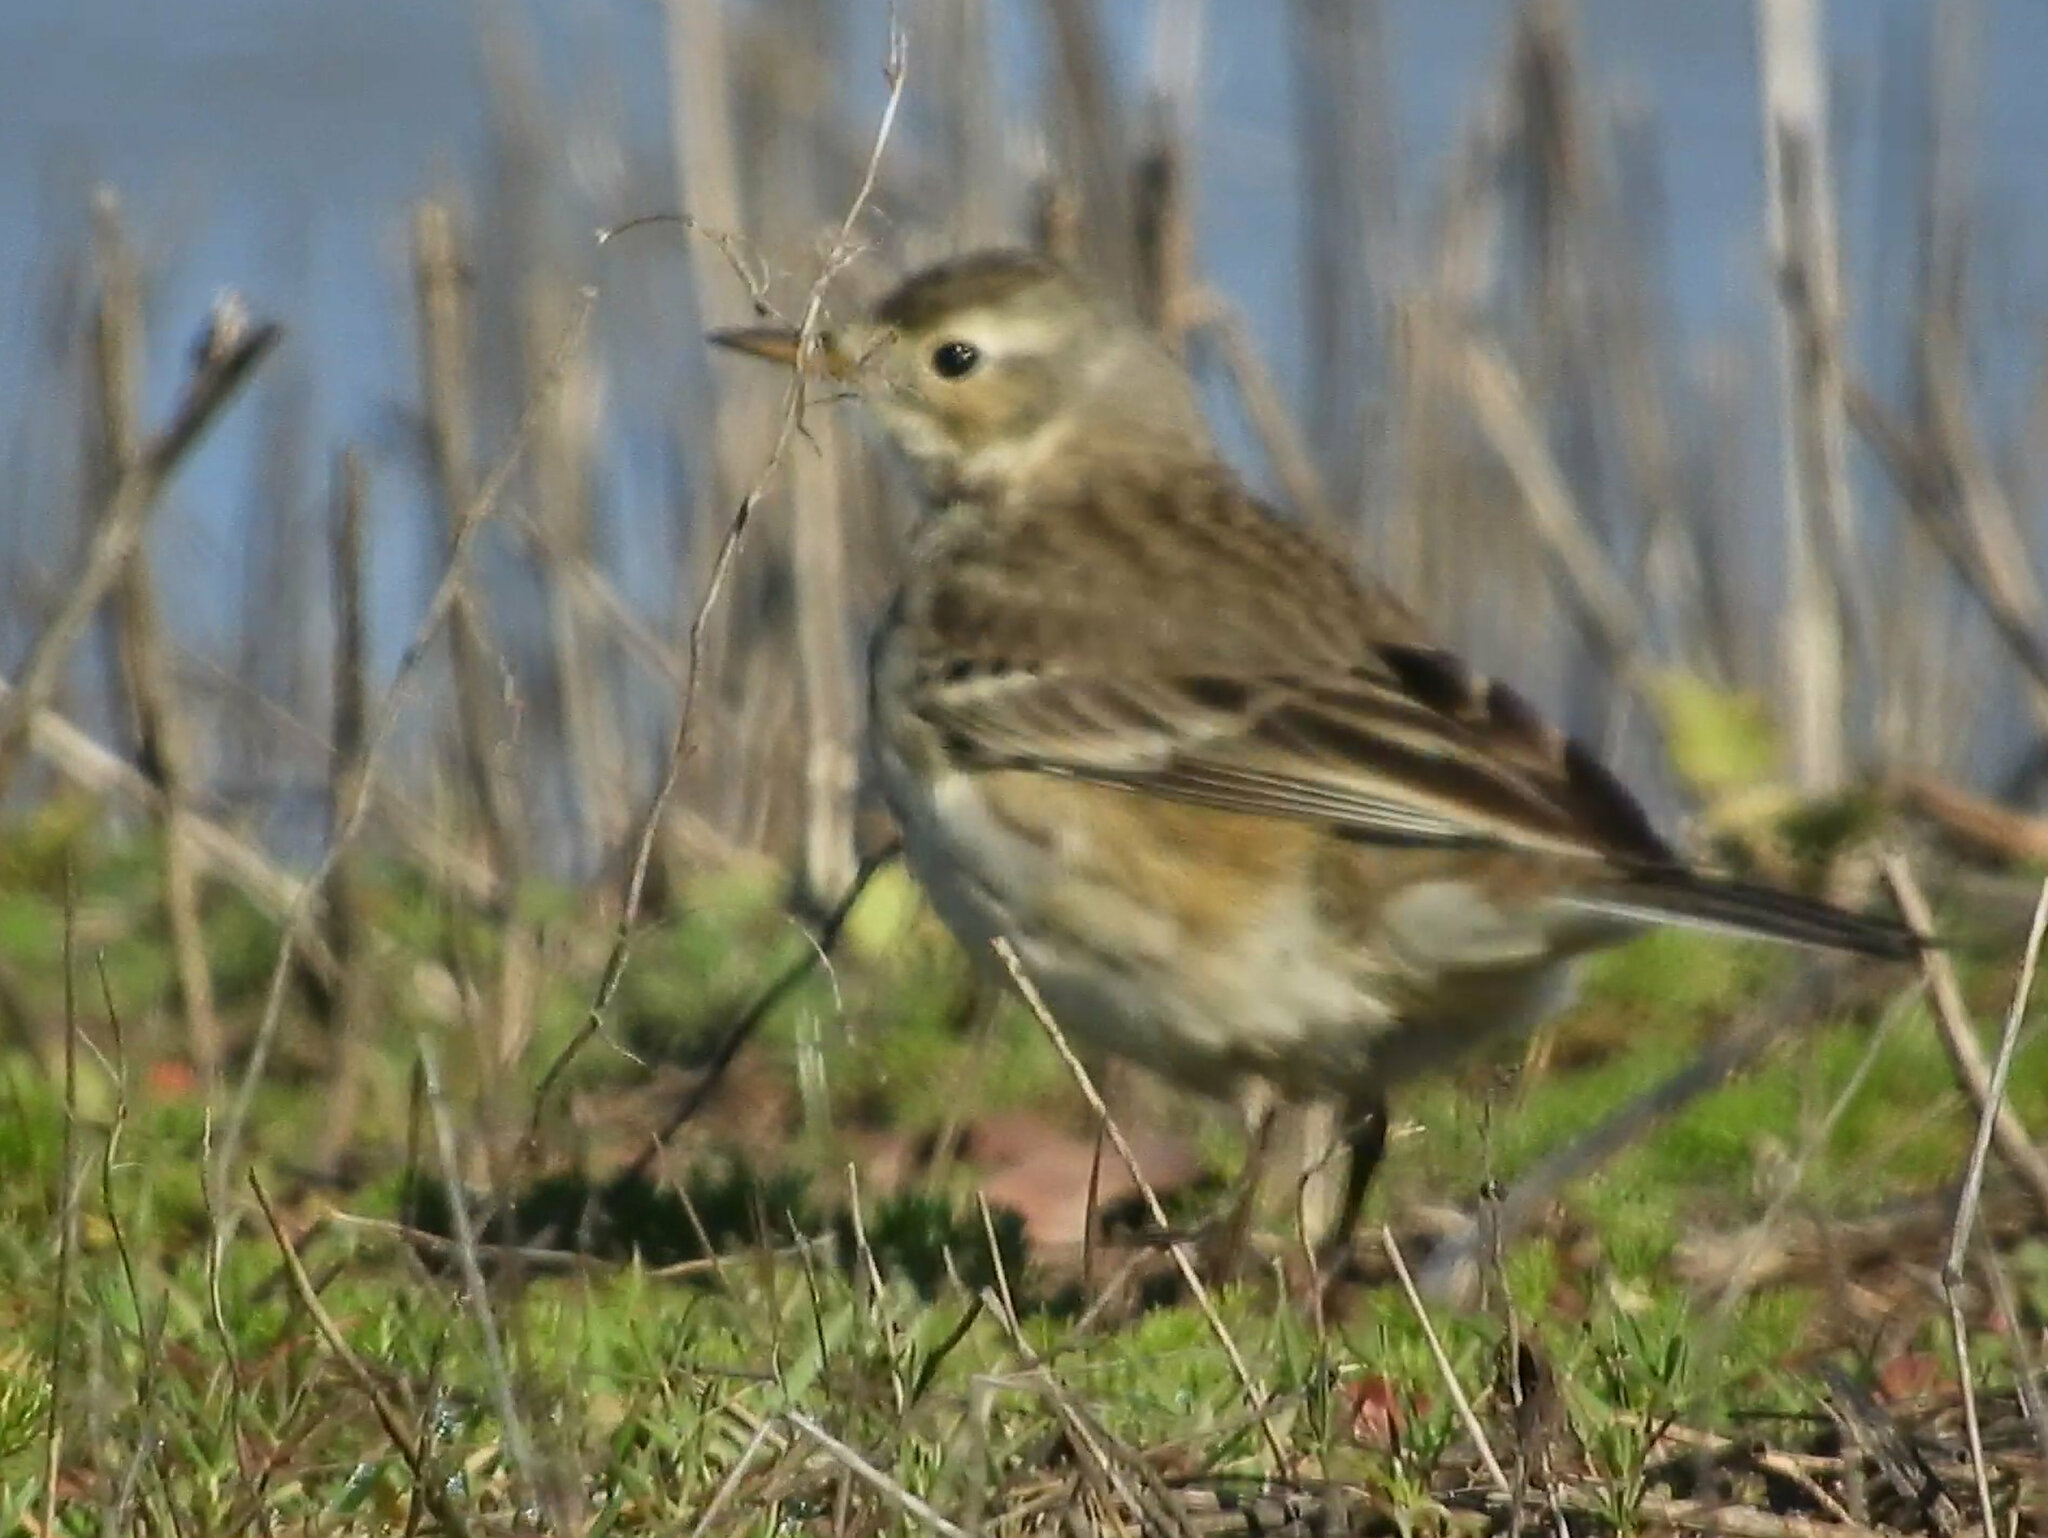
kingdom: Animalia
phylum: Chordata
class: Aves
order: Passeriformes
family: Motacillidae
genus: Anthus
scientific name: Anthus rubescens
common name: Buff-bellied pipit
